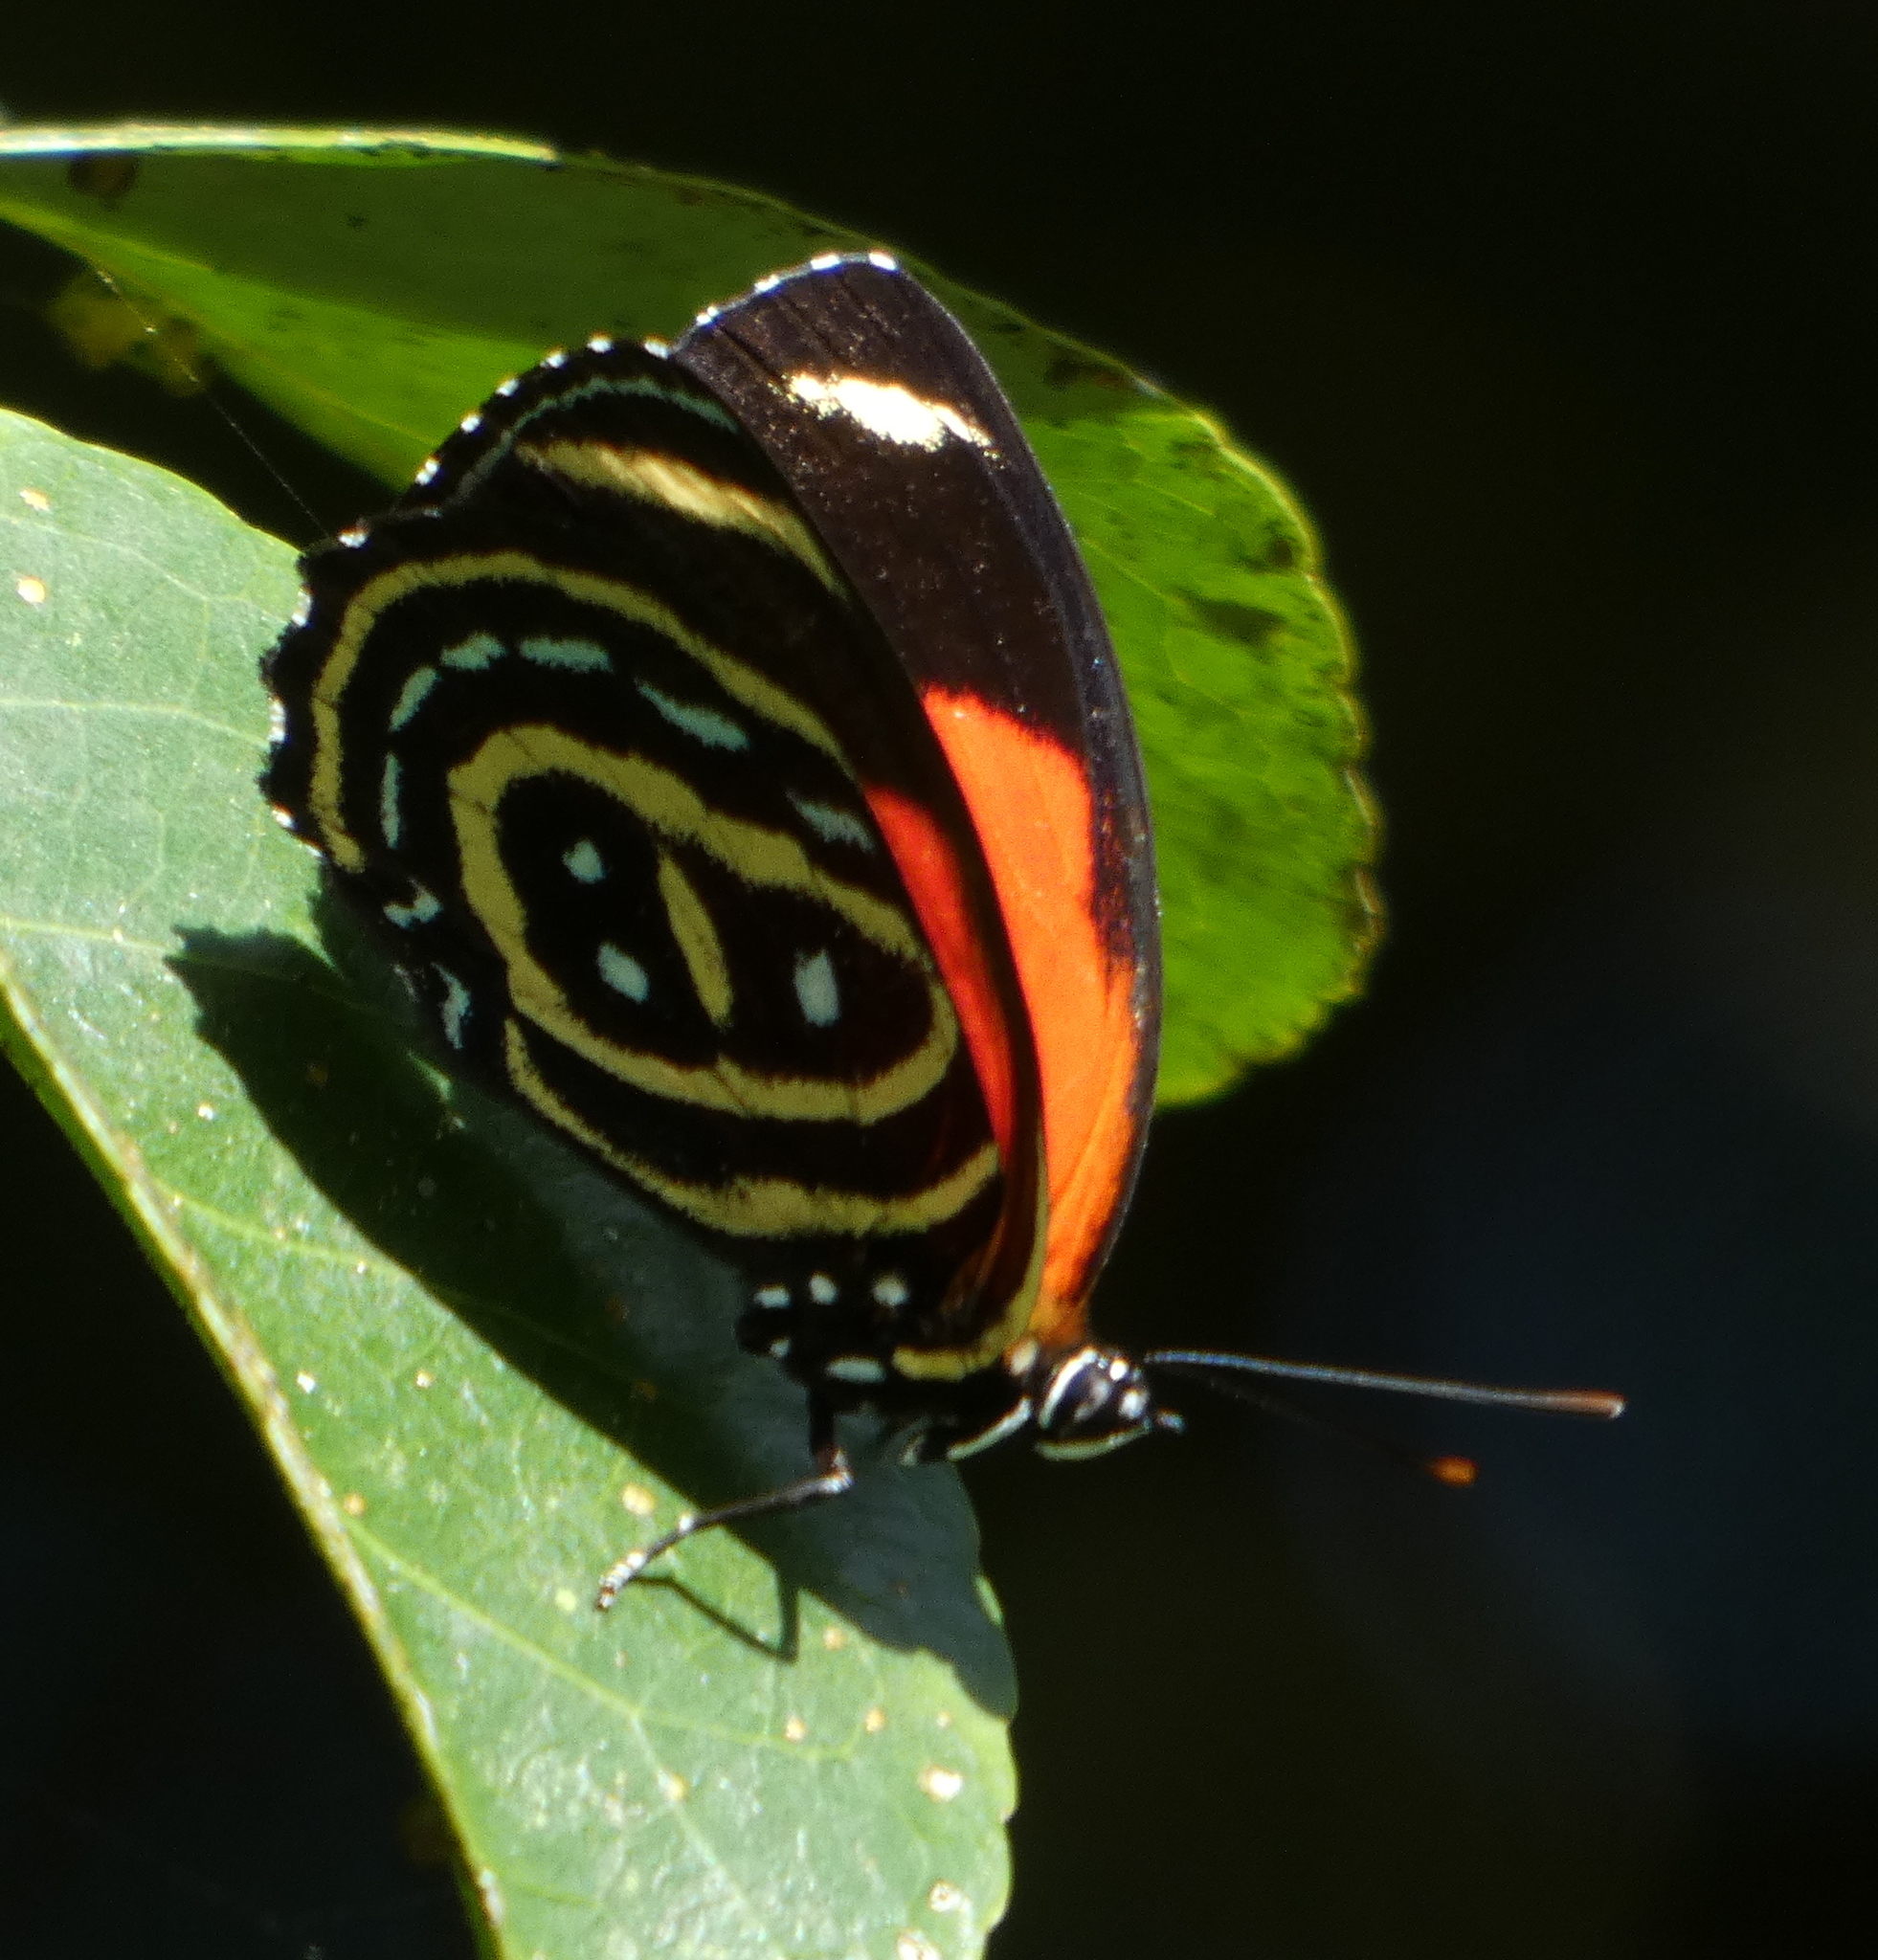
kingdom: Animalia
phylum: Arthropoda
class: Insecta
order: Lepidoptera
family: Nymphalidae
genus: Catagramma
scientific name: Catagramma astarte
